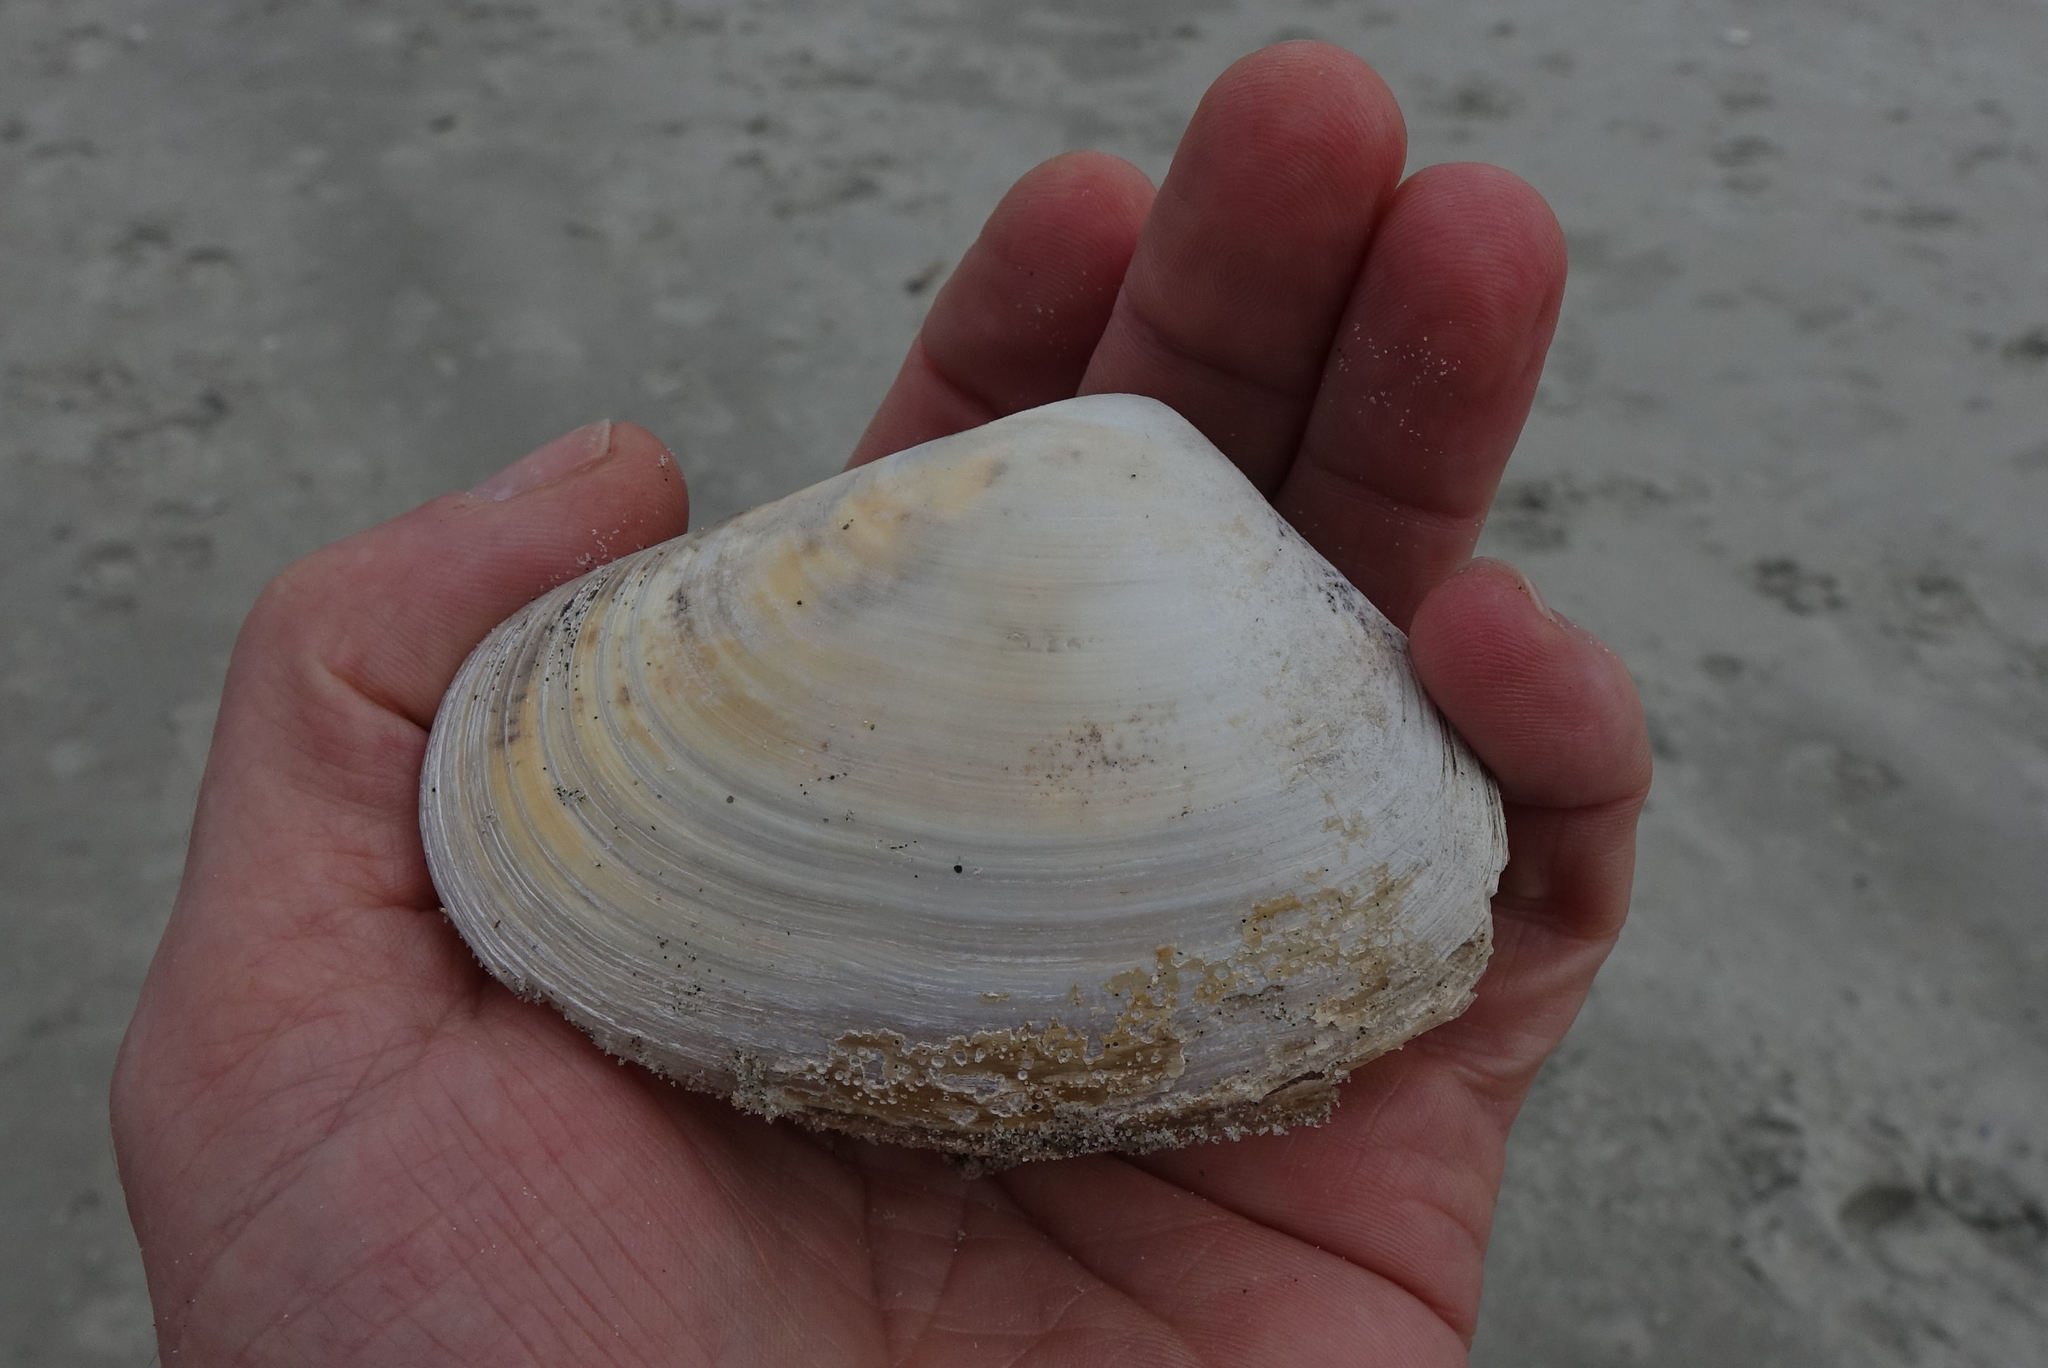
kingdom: Animalia
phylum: Mollusca
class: Bivalvia
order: Venerida
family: Mesodesmatidae
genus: Paphies
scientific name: Paphies donacina
